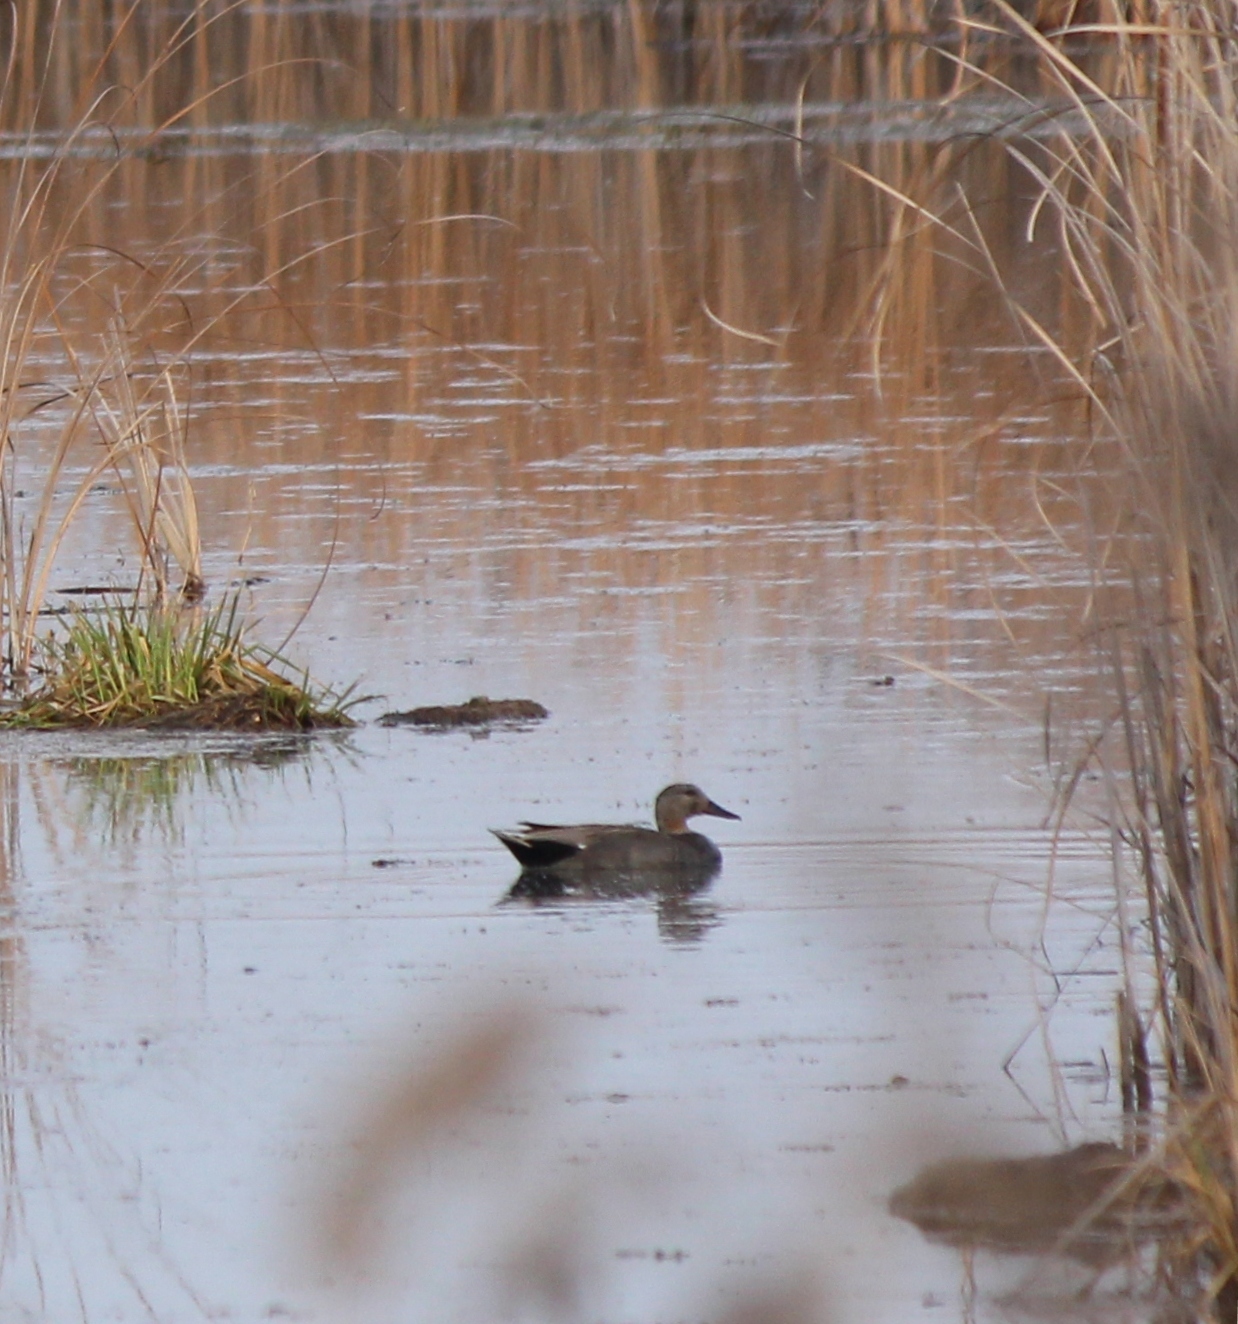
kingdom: Animalia
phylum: Chordata
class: Aves
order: Anseriformes
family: Anatidae
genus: Mareca
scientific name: Mareca strepera
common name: Gadwall
